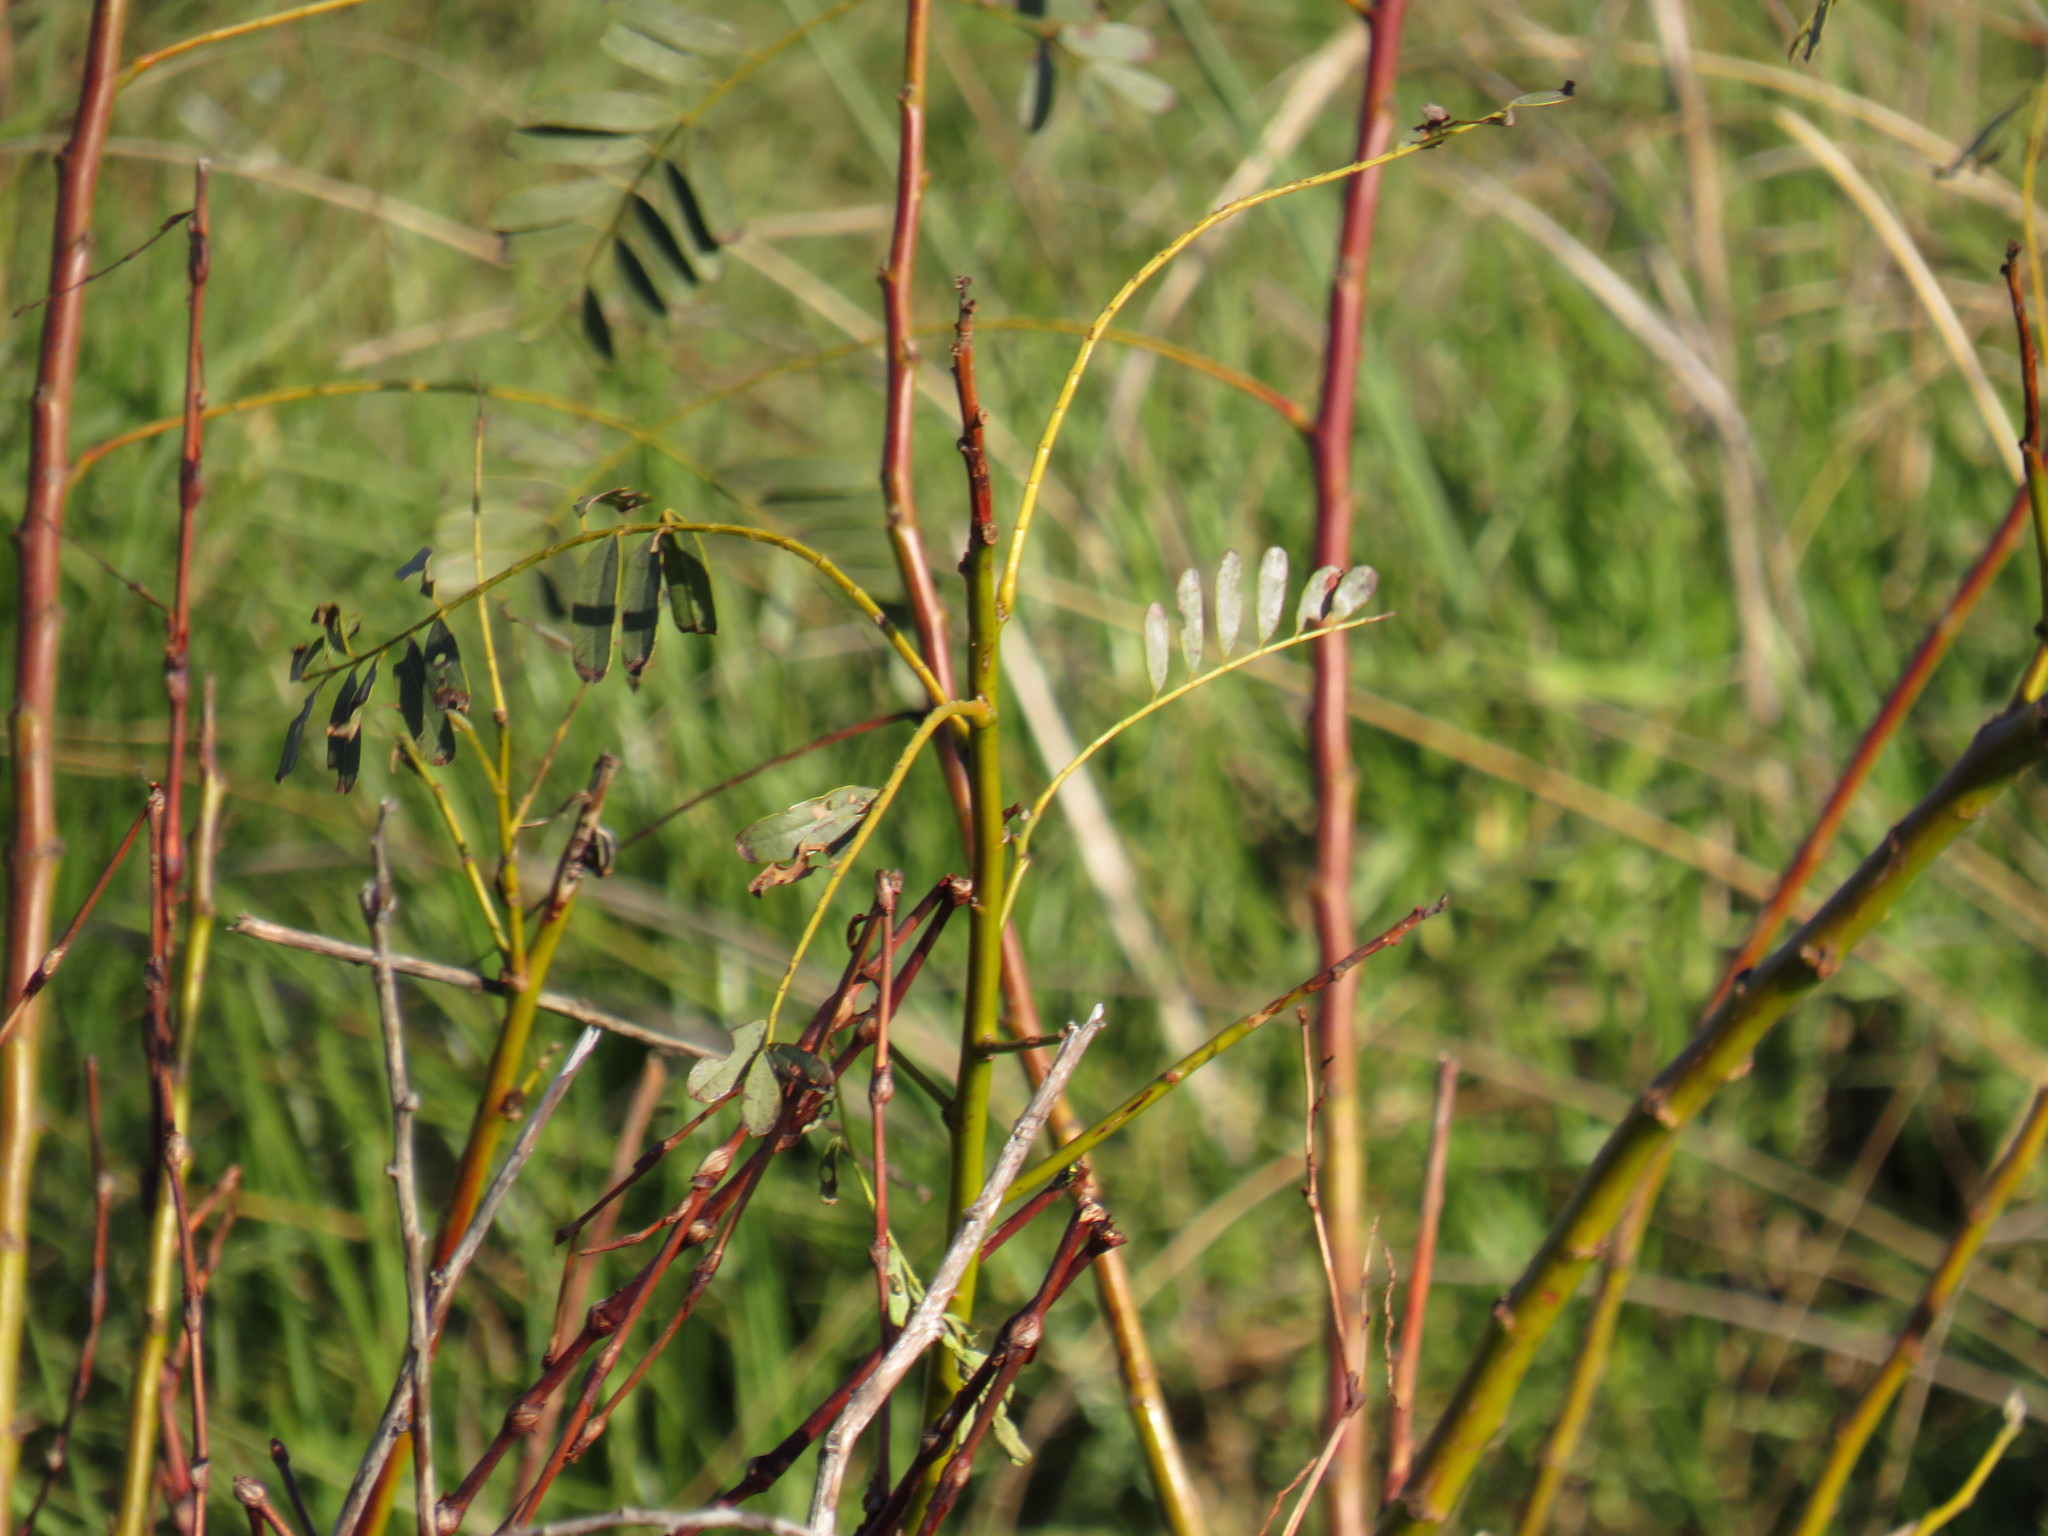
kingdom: Plantae
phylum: Tracheophyta
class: Magnoliopsida
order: Fabales
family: Fabaceae
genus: Sesbania
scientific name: Sesbania punicea
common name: Rattlebox
